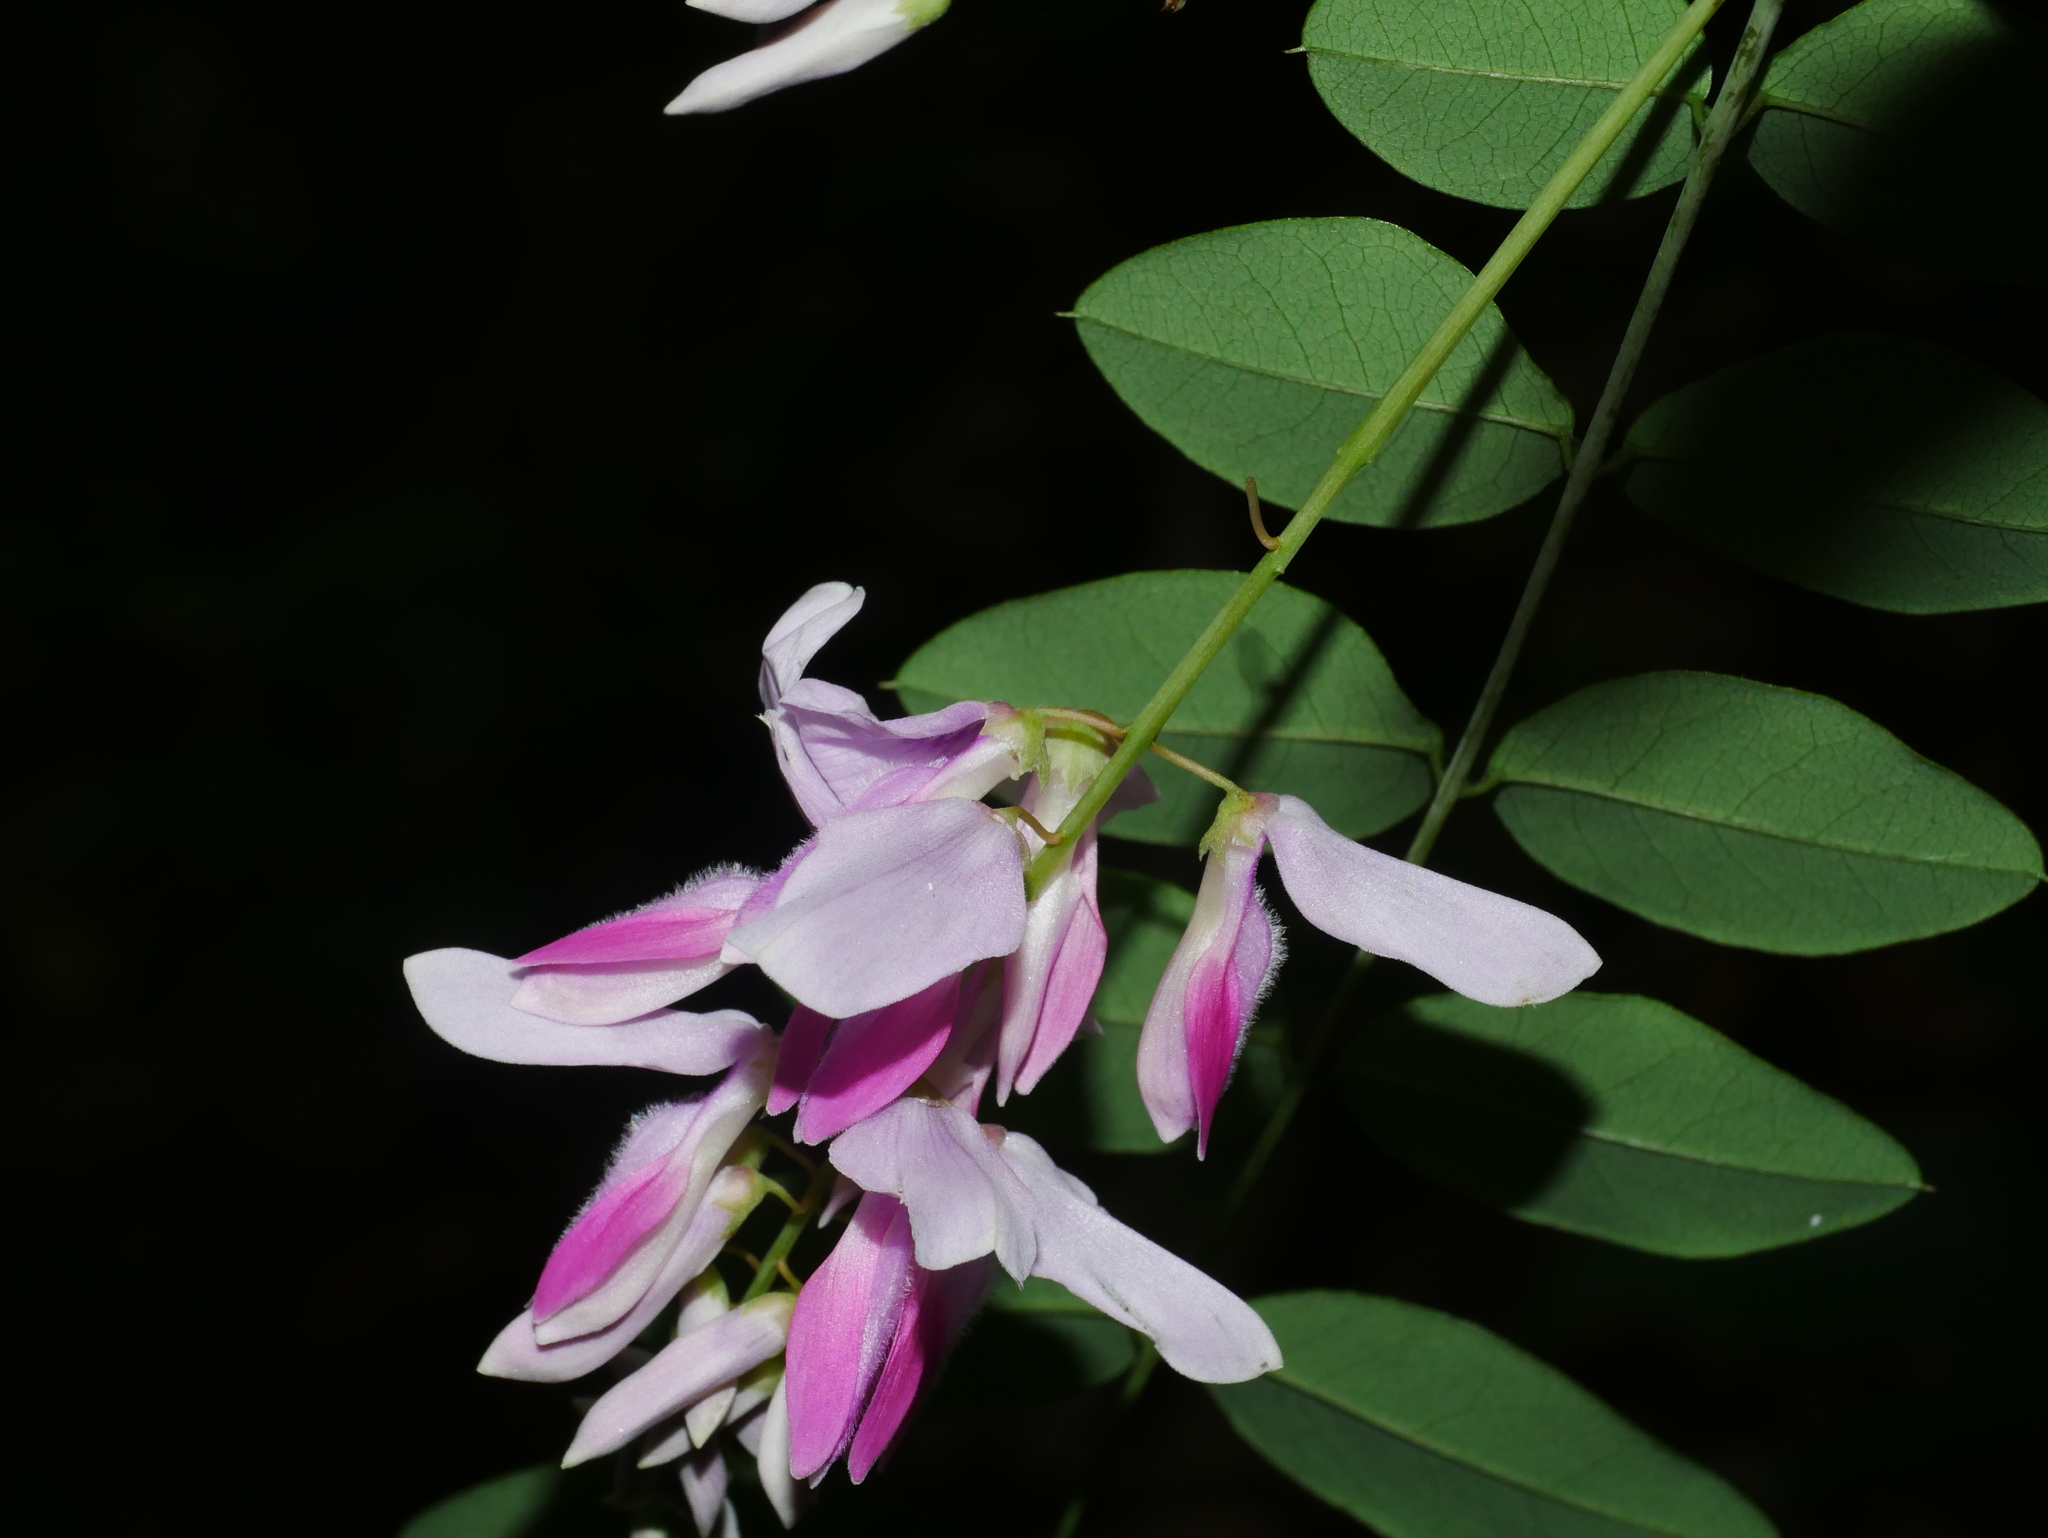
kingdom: Plantae
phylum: Tracheophyta
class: Magnoliopsida
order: Fabales
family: Fabaceae
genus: Indigofera
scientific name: Indigofera venulosa
